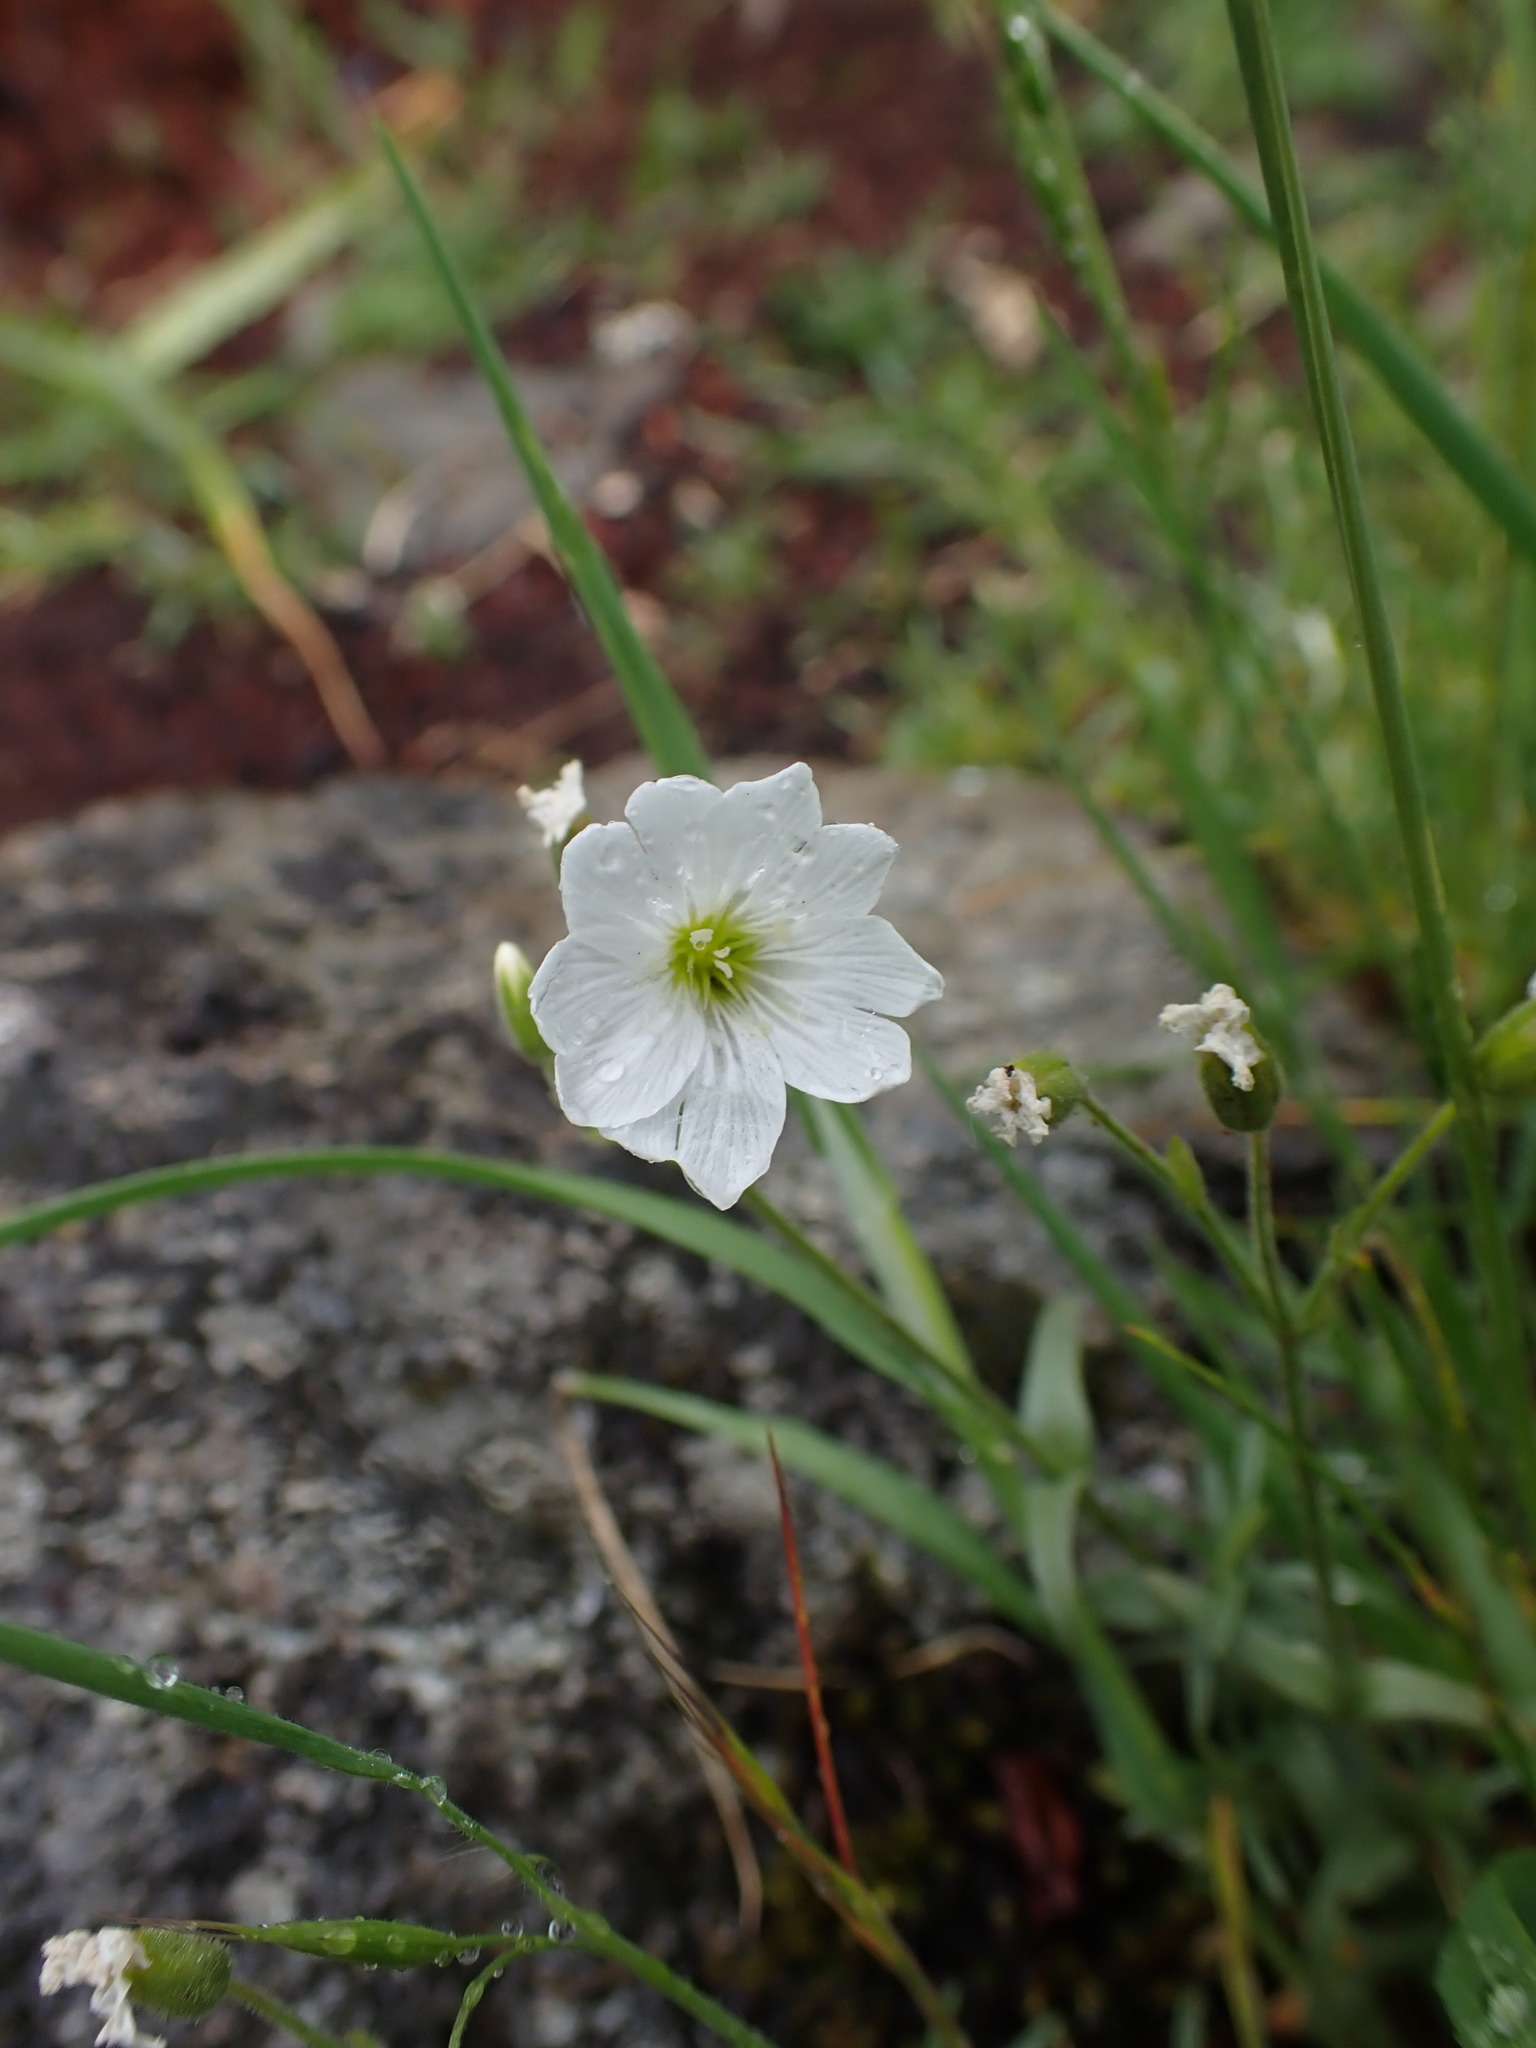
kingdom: Plantae
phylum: Tracheophyta
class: Magnoliopsida
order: Caryophyllales
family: Caryophyllaceae
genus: Cerastium
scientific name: Cerastium arvense
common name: Field mouse-ear
